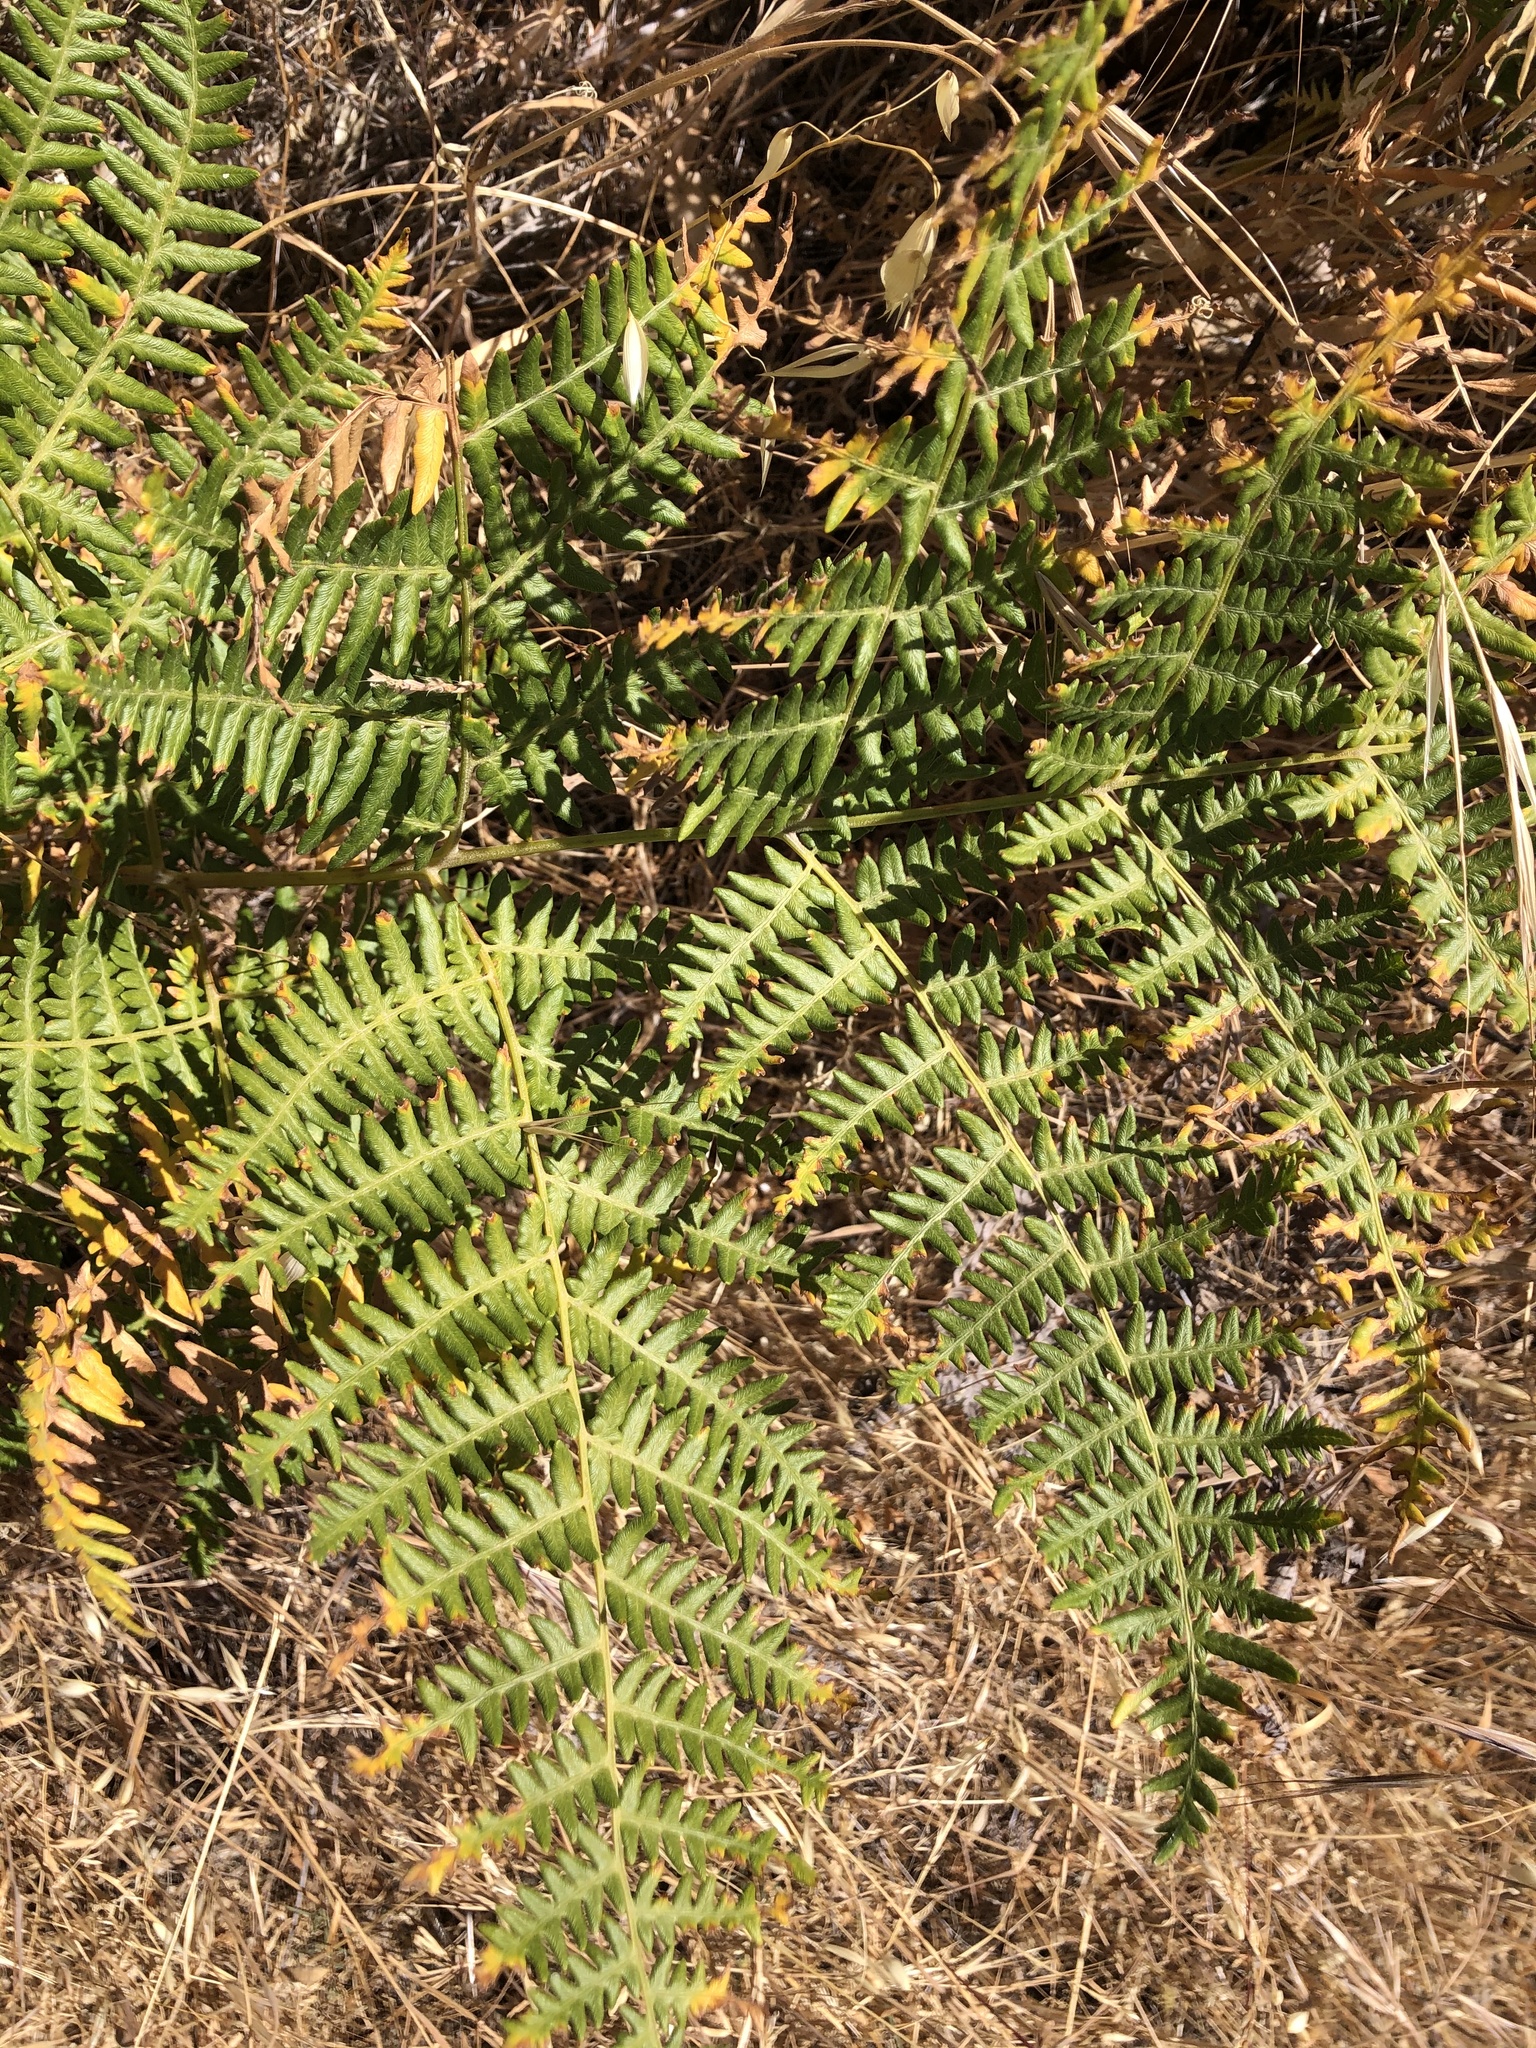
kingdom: Plantae
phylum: Tracheophyta
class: Polypodiopsida
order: Polypodiales
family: Dennstaedtiaceae
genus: Pteridium
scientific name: Pteridium aquilinum
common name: Bracken
